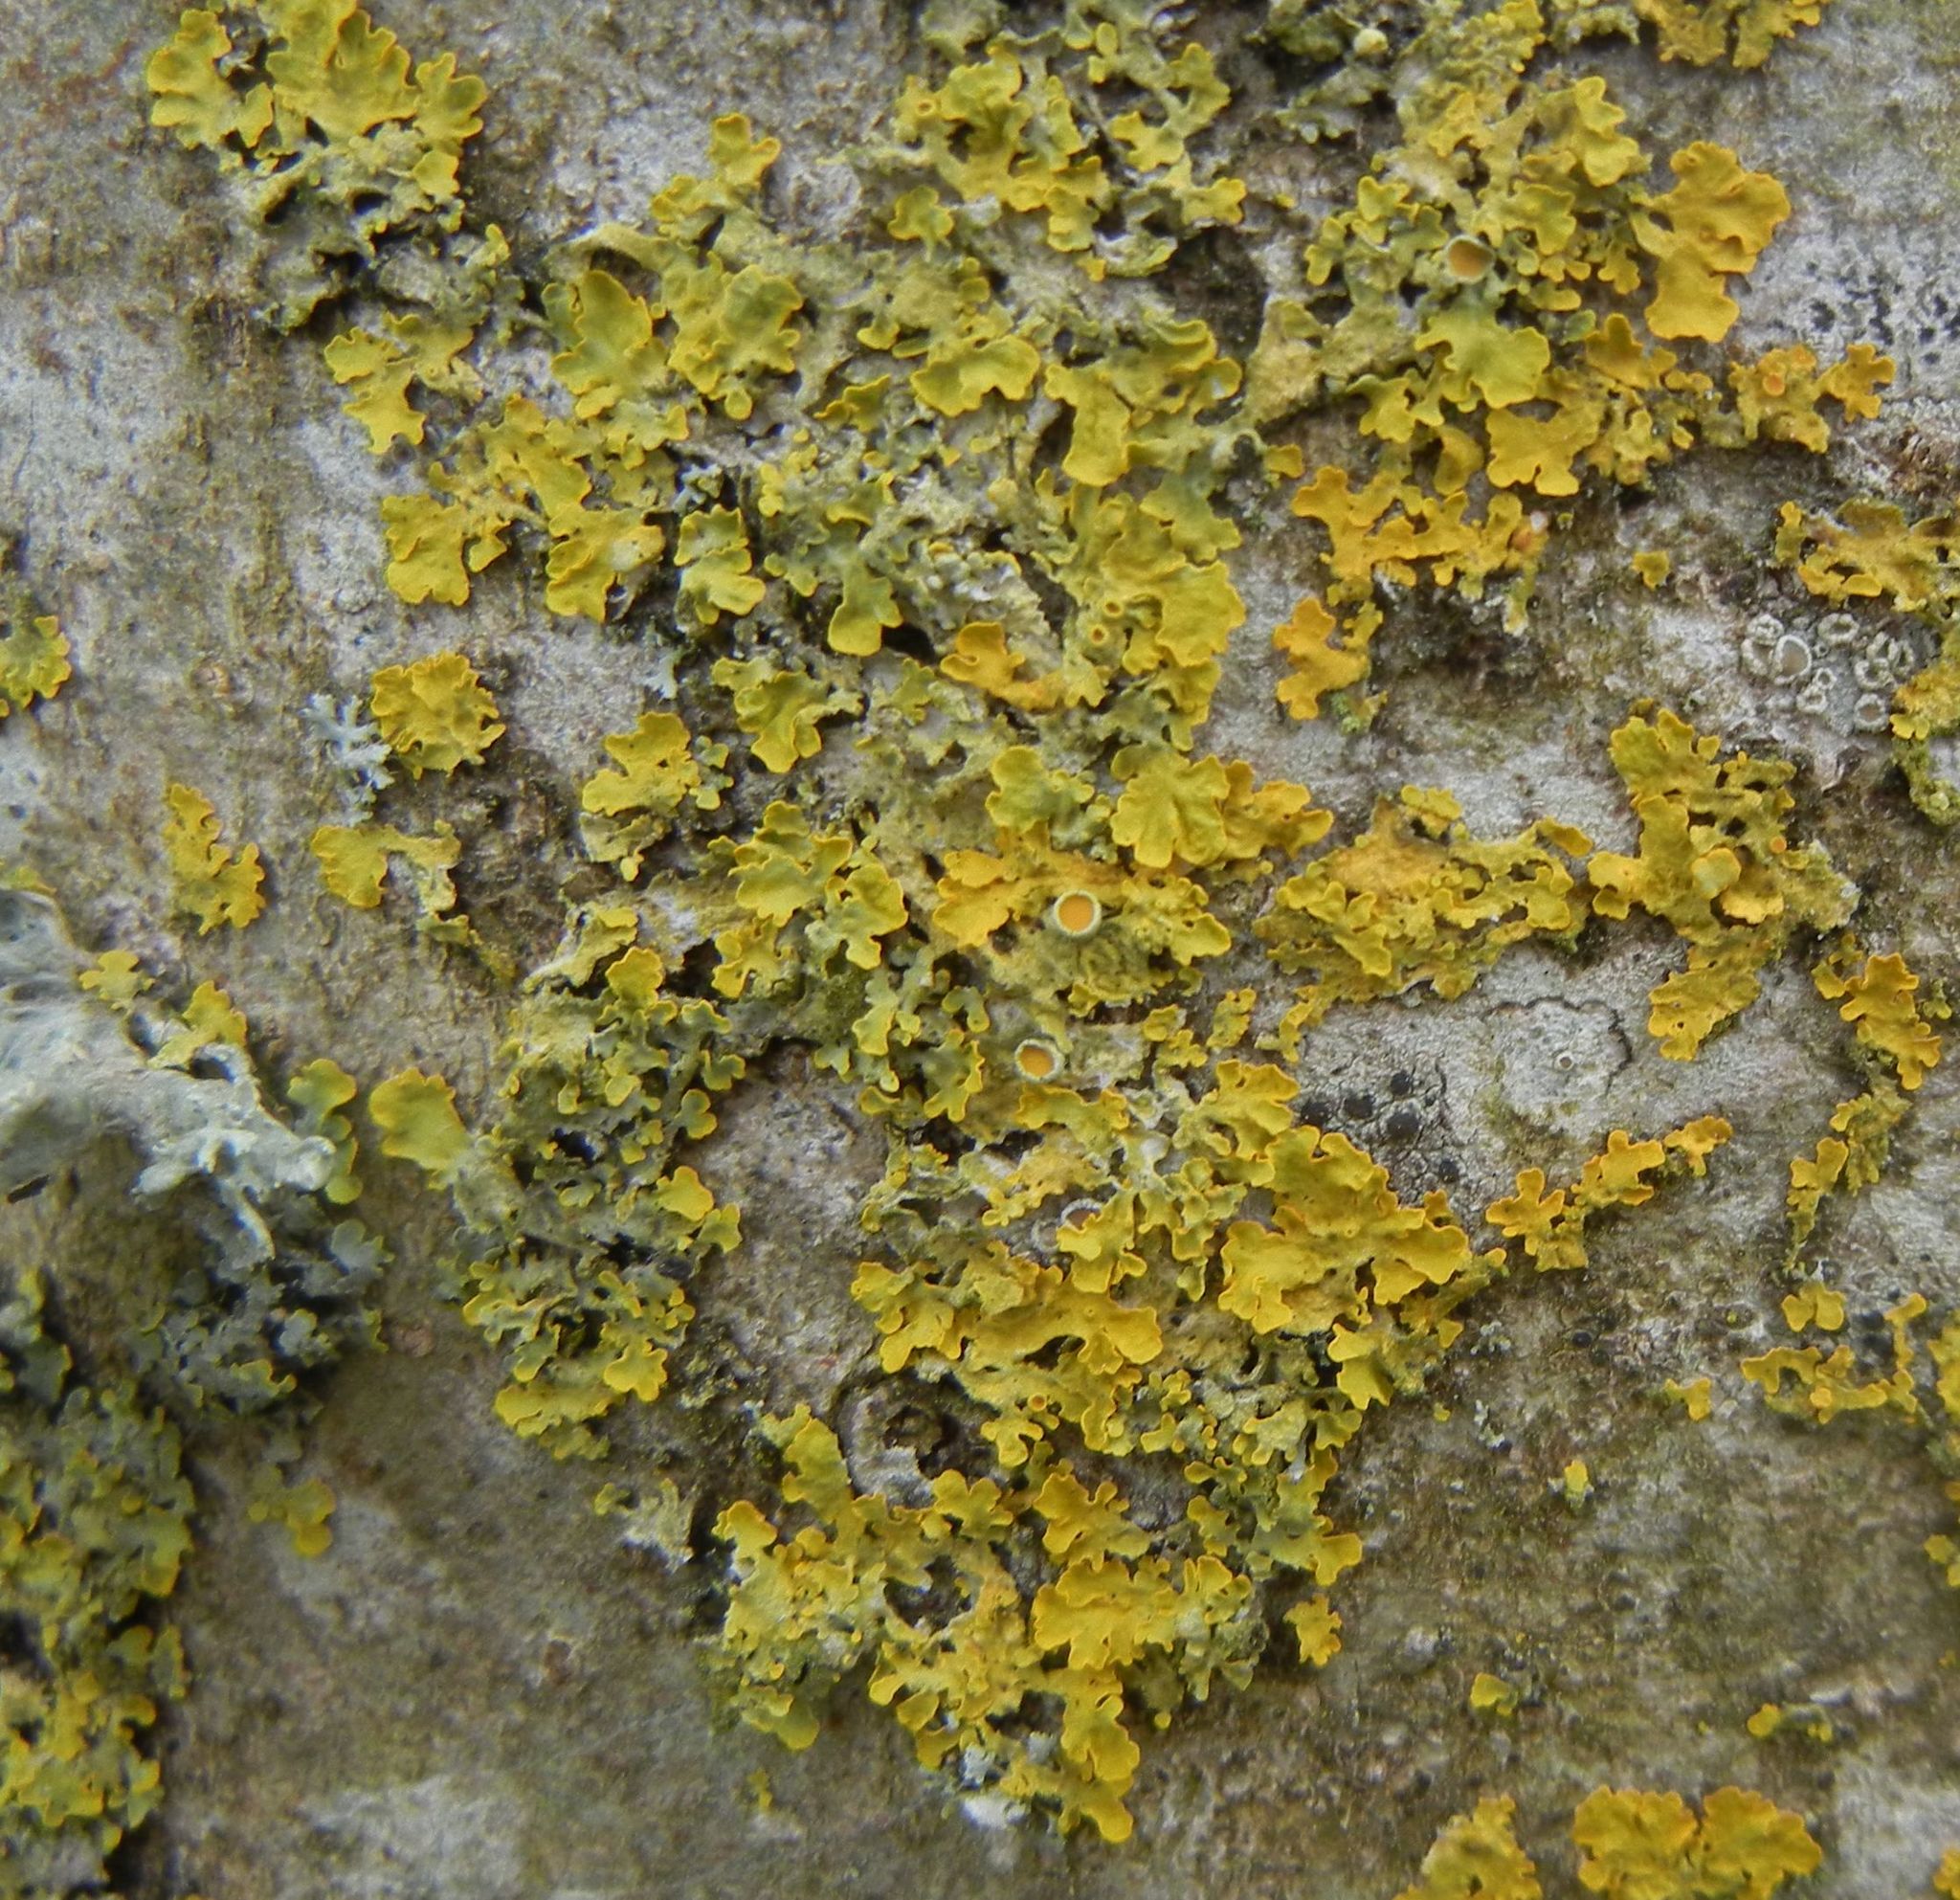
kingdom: Fungi
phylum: Ascomycota
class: Lecanoromycetes
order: Teloschistales
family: Teloschistaceae
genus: Xanthoria
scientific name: Xanthoria parietina
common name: Common orange lichen
